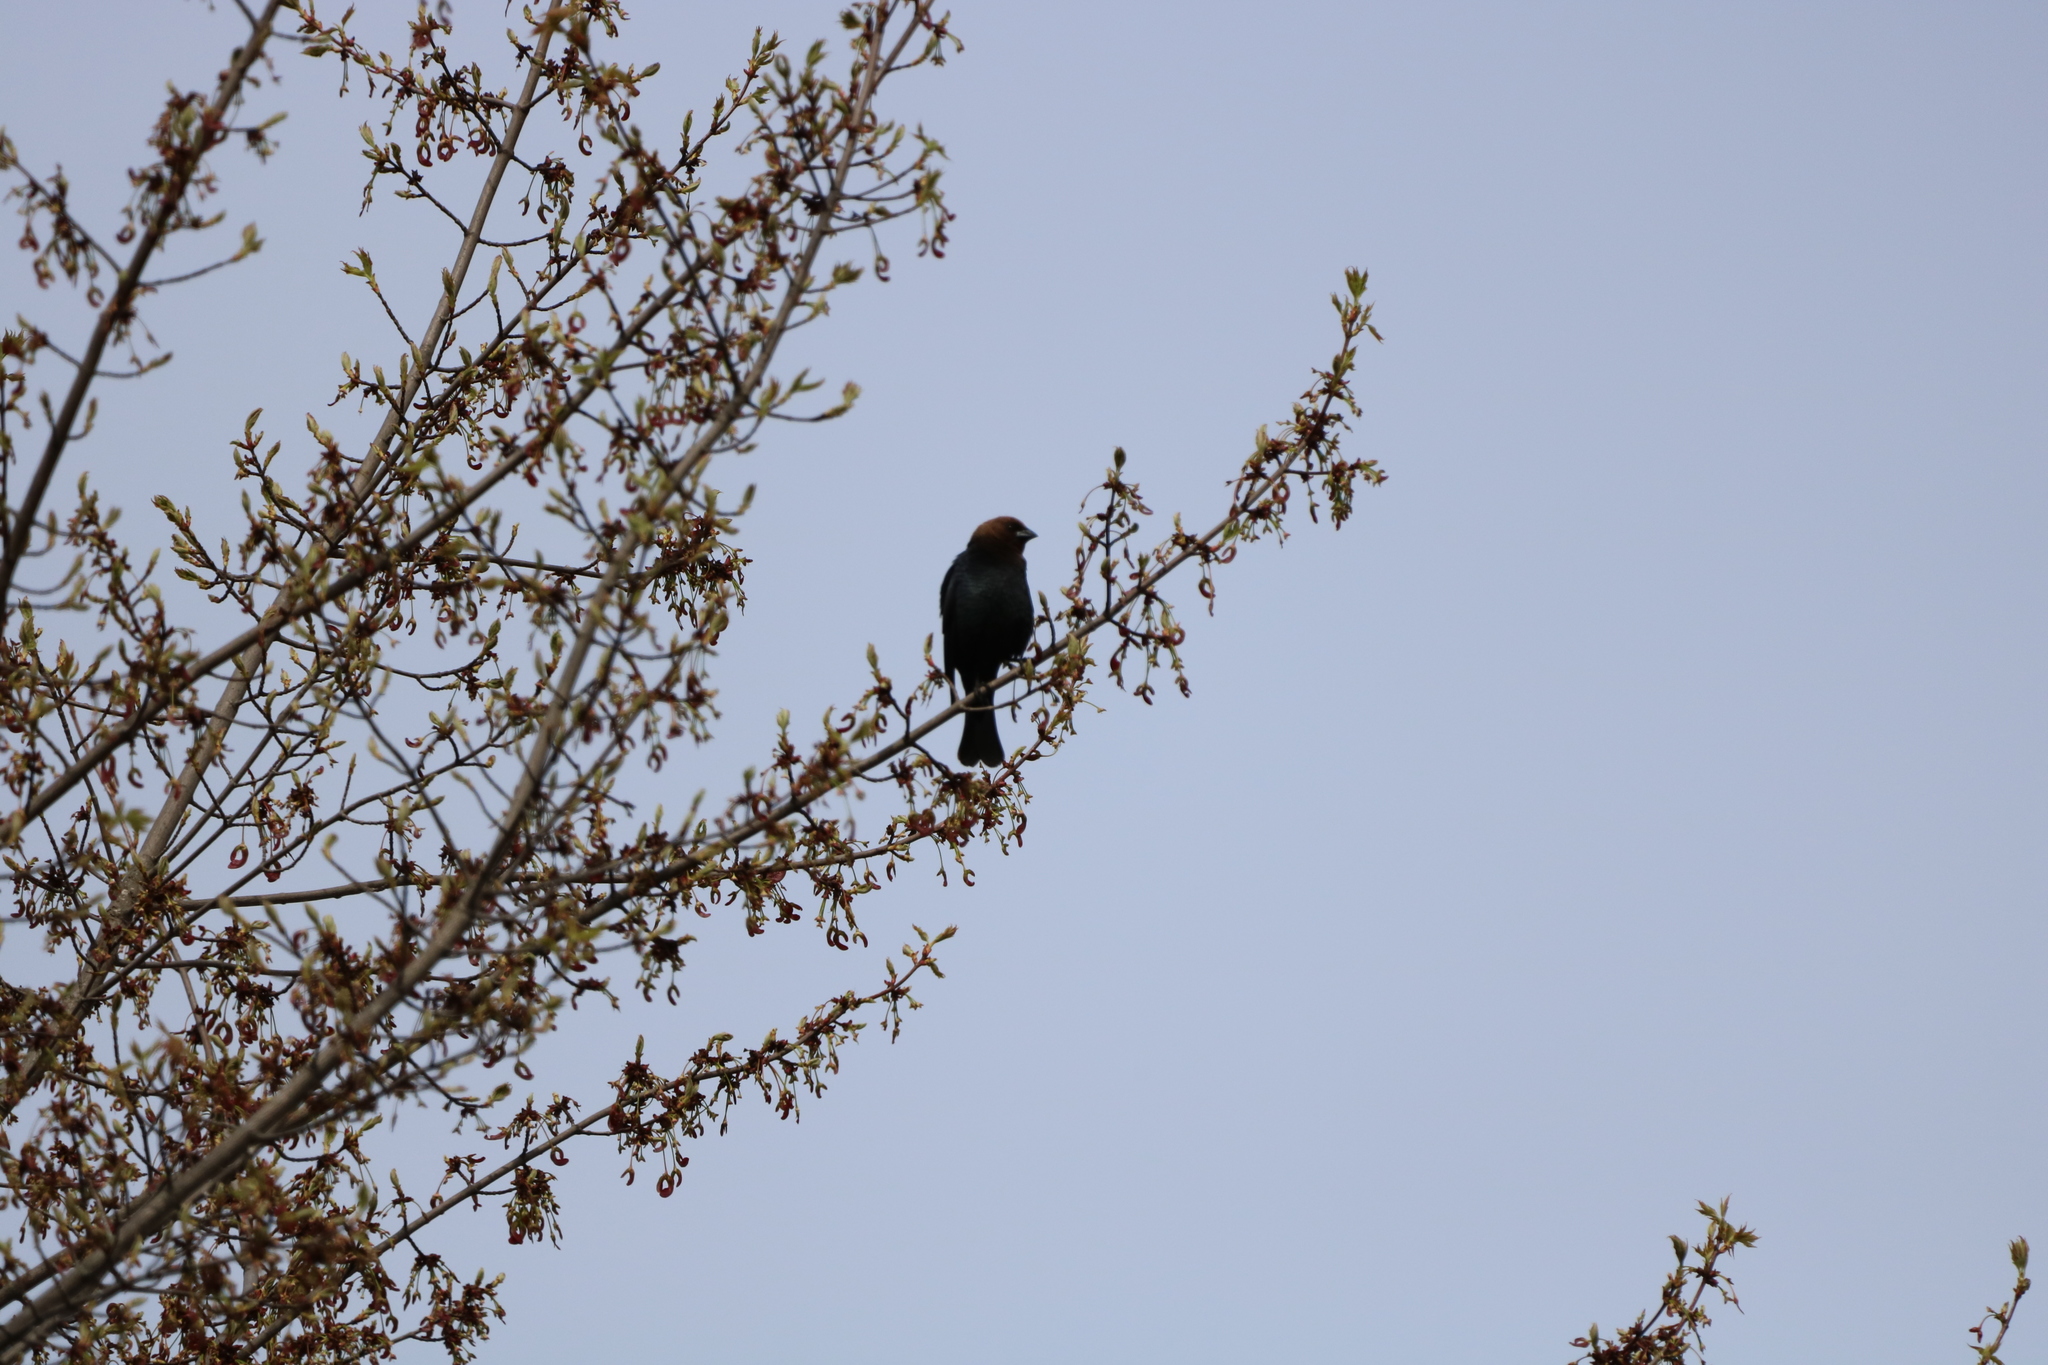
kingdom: Animalia
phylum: Chordata
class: Aves
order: Passeriformes
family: Icteridae
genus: Molothrus
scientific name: Molothrus ater
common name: Brown-headed cowbird
